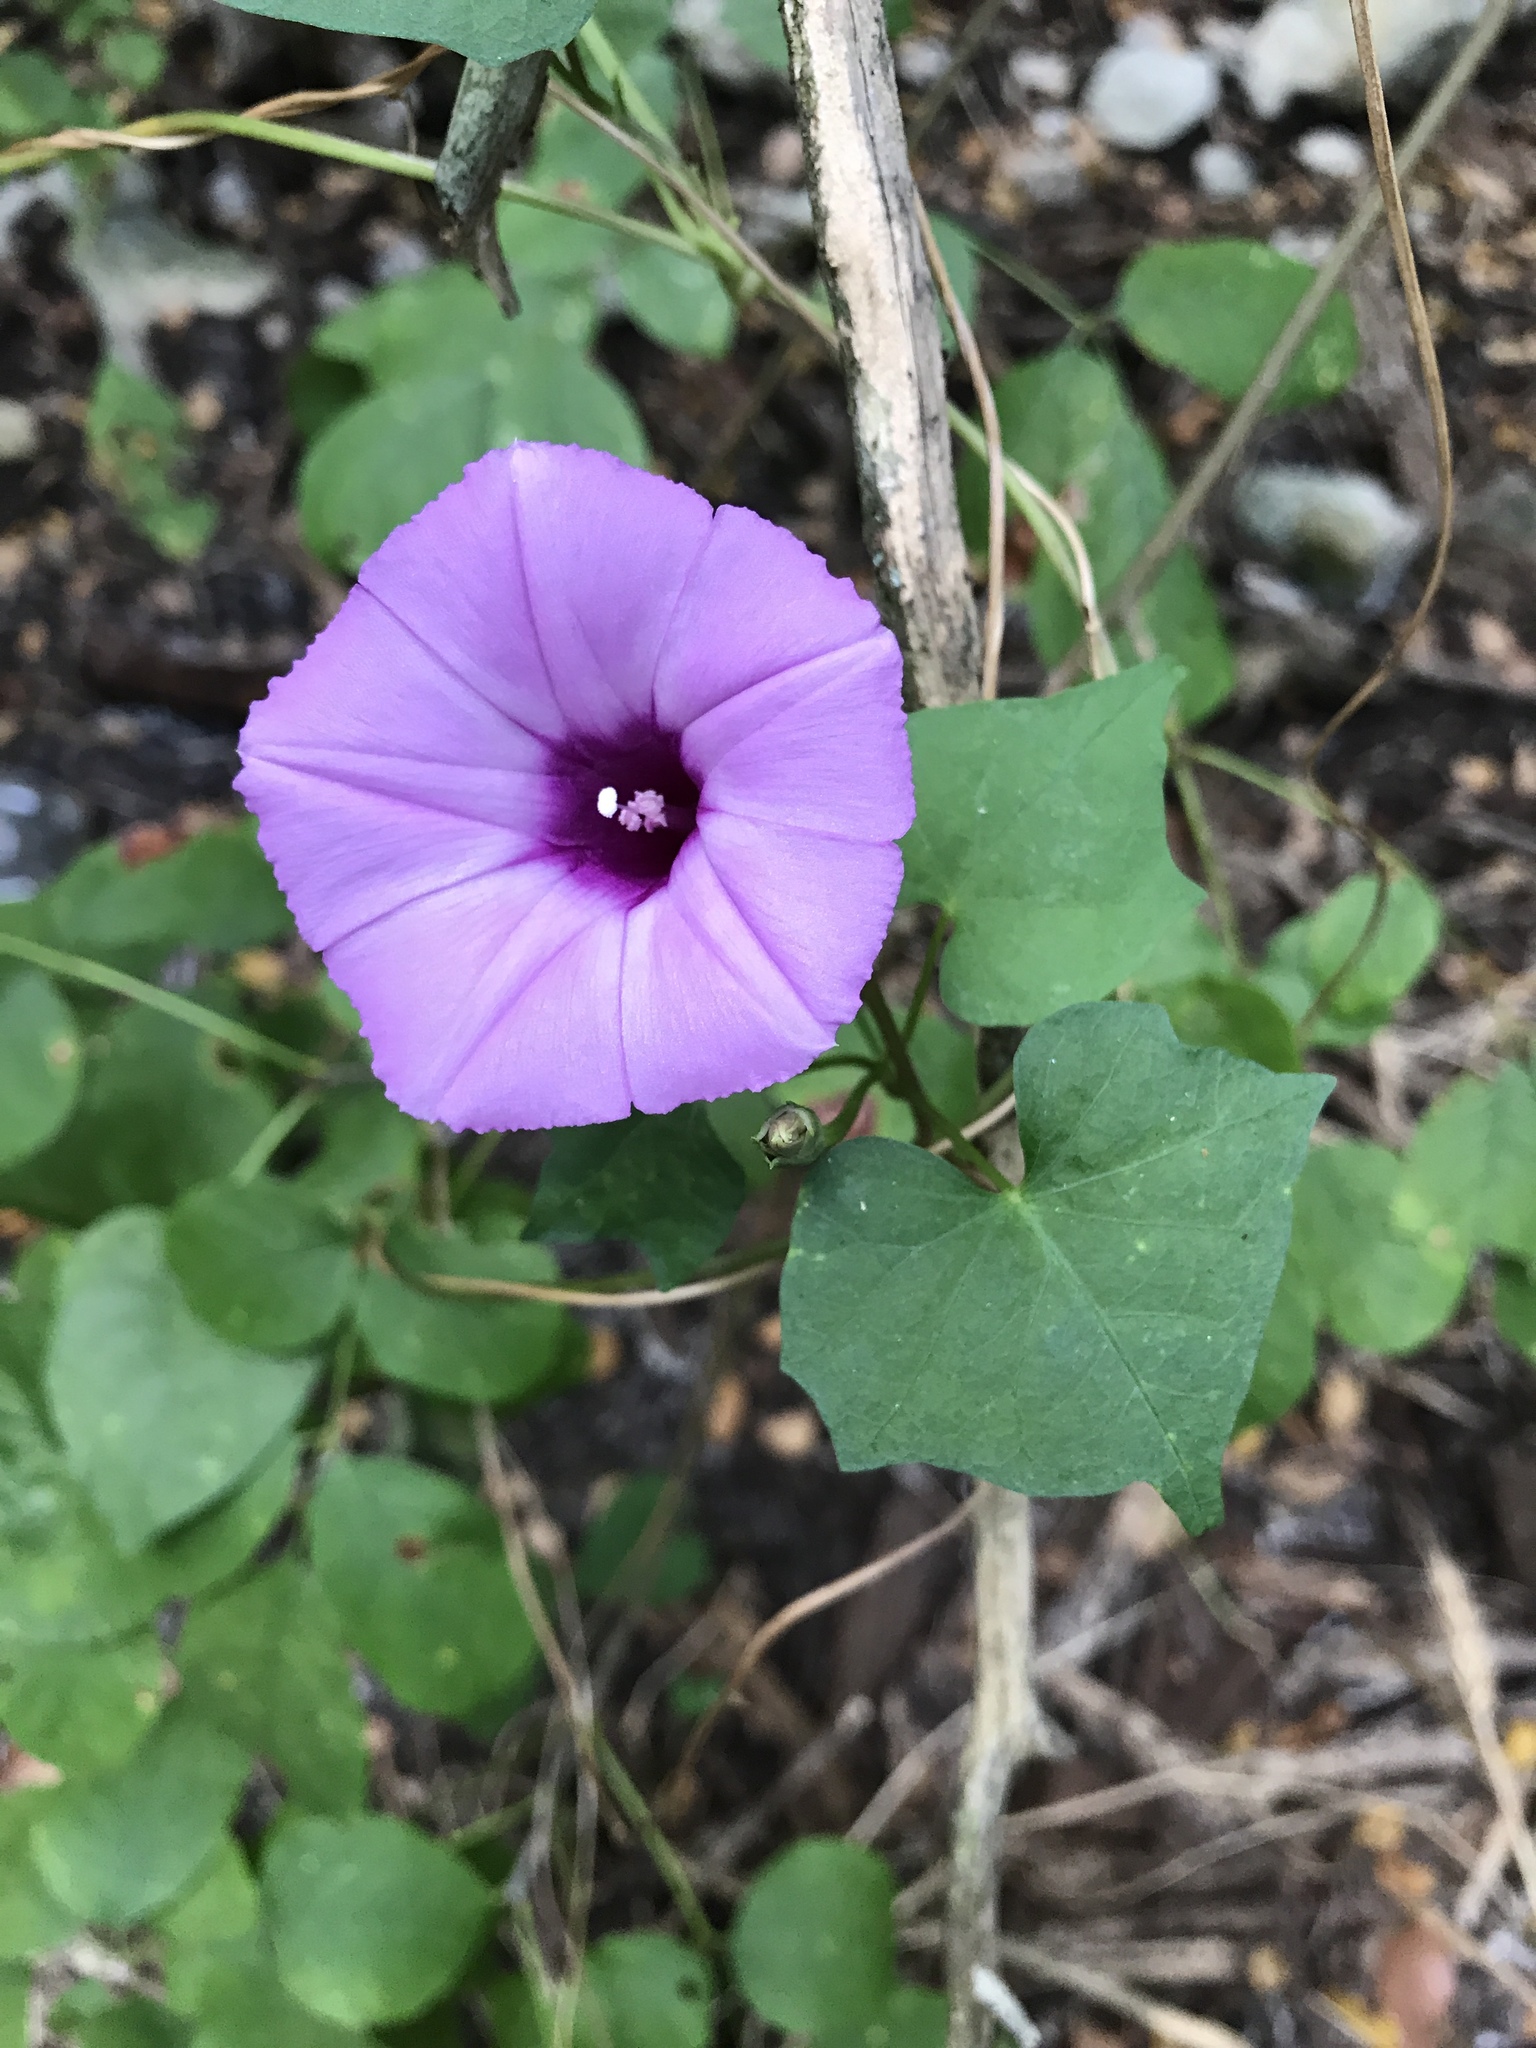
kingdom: Plantae
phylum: Tracheophyta
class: Magnoliopsida
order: Solanales
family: Convolvulaceae
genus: Ipomoea
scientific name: Ipomoea cordatotriloba
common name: Cotton morning glory
